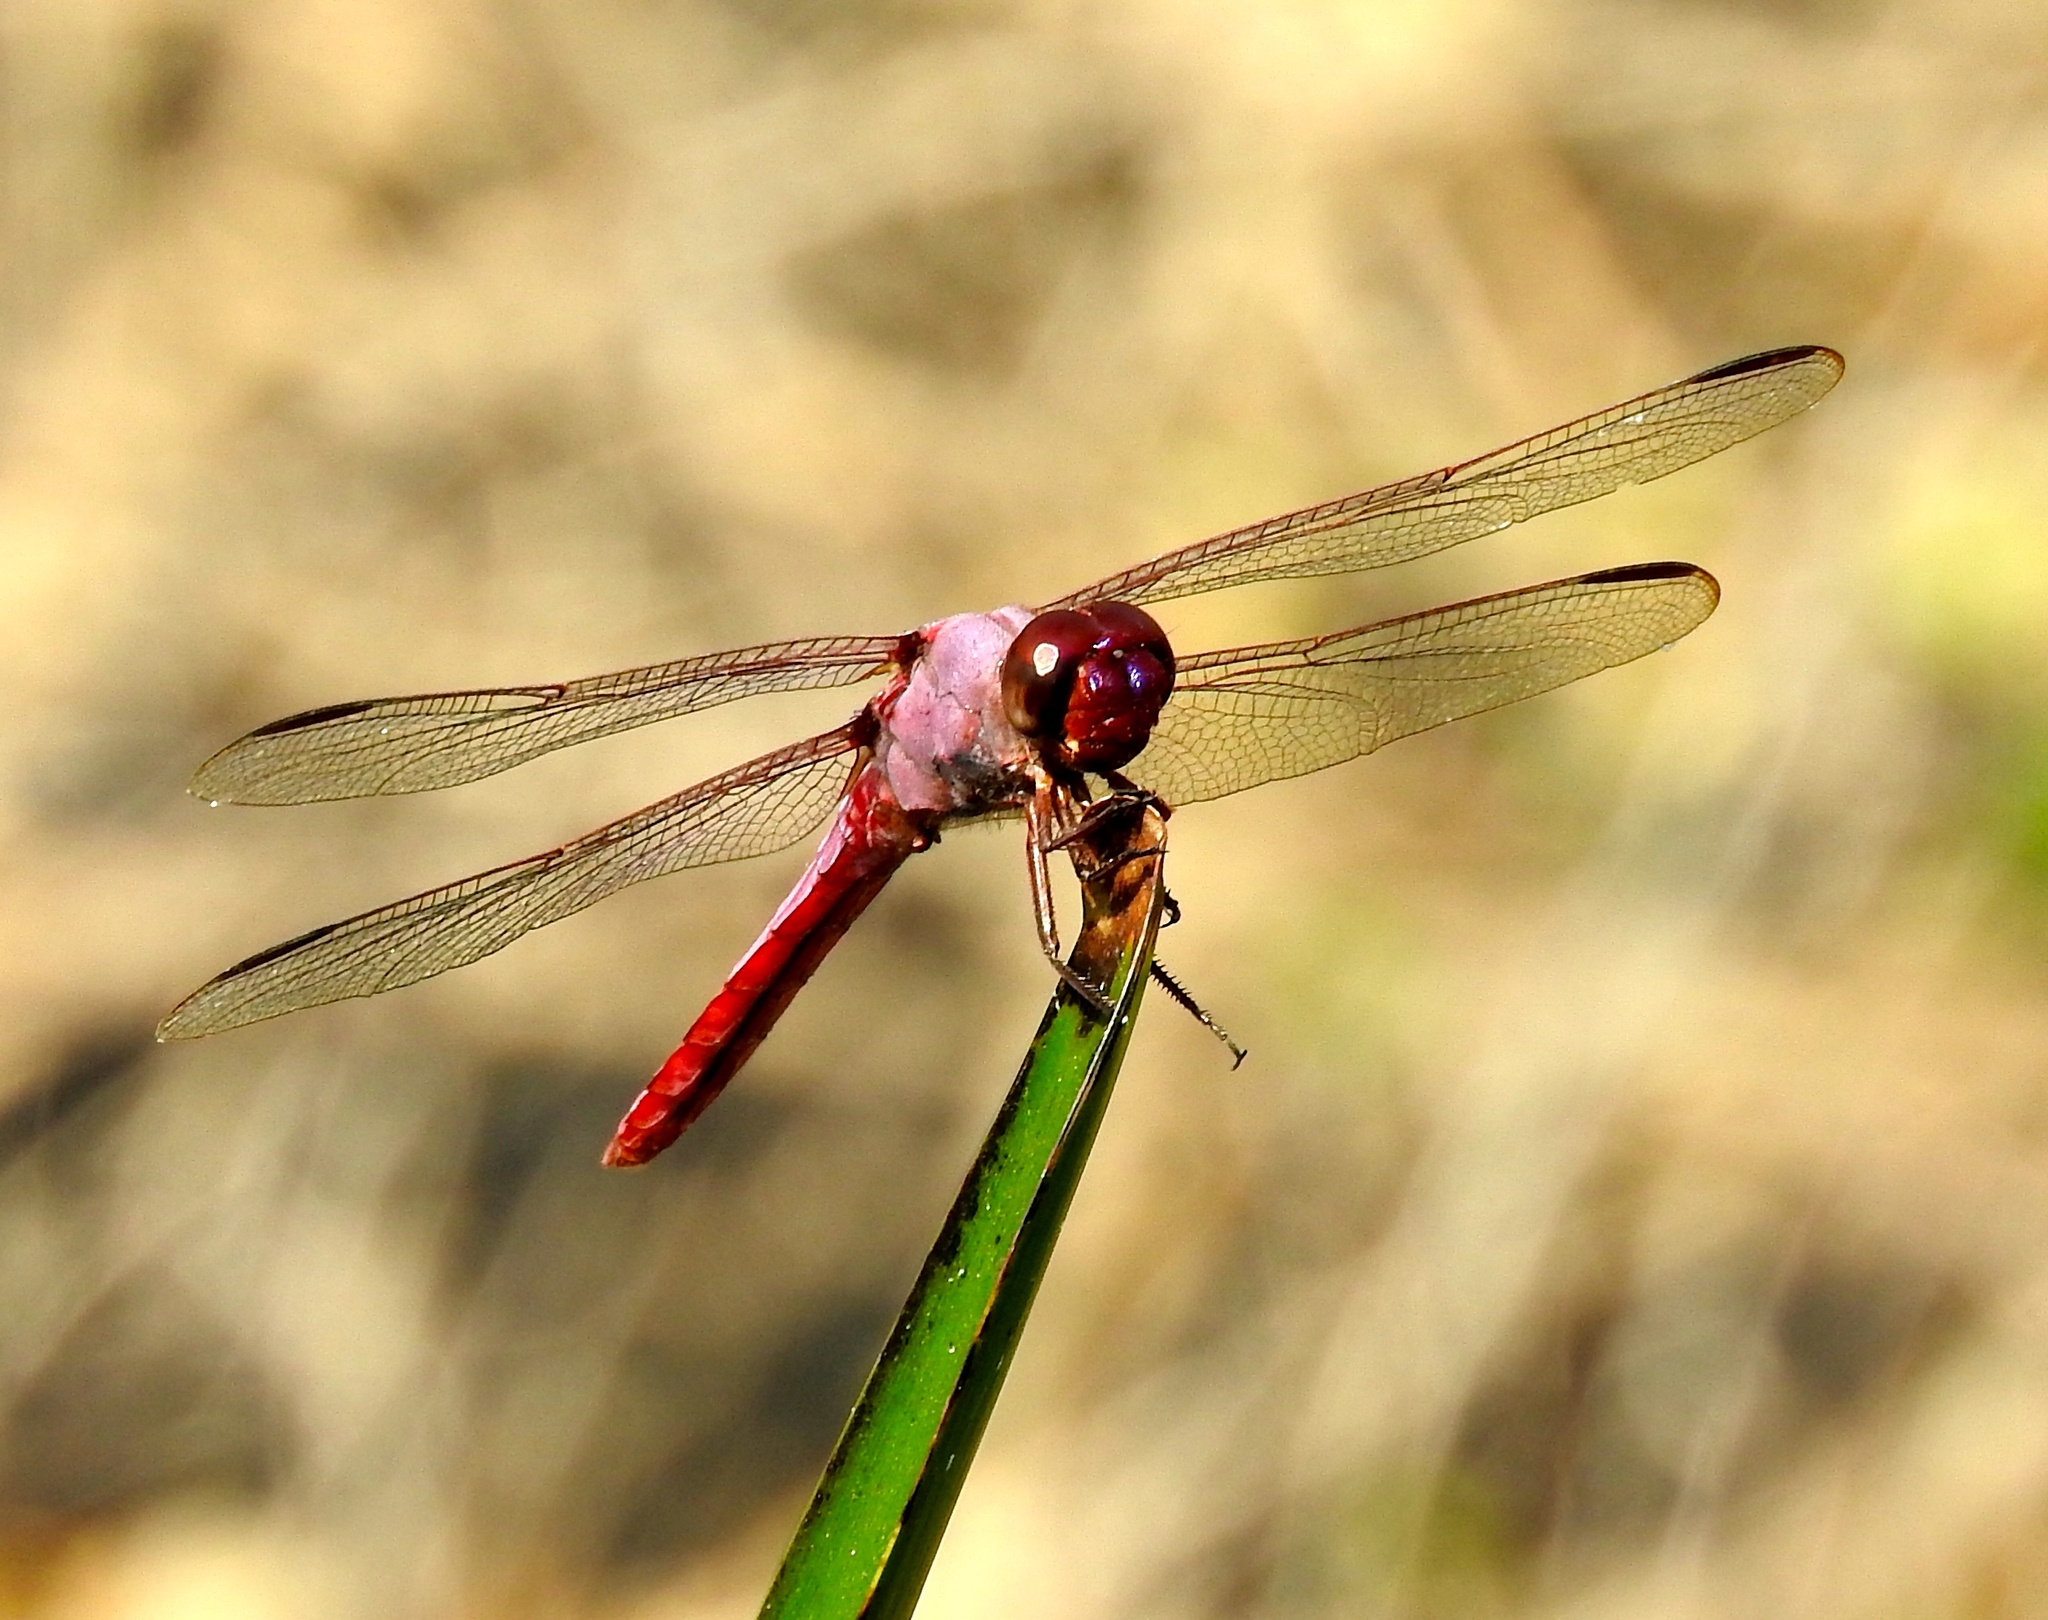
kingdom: Animalia
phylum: Arthropoda
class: Insecta
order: Odonata
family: Libellulidae
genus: Orthemis
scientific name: Orthemis ferruginea
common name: Roseate skimmer
